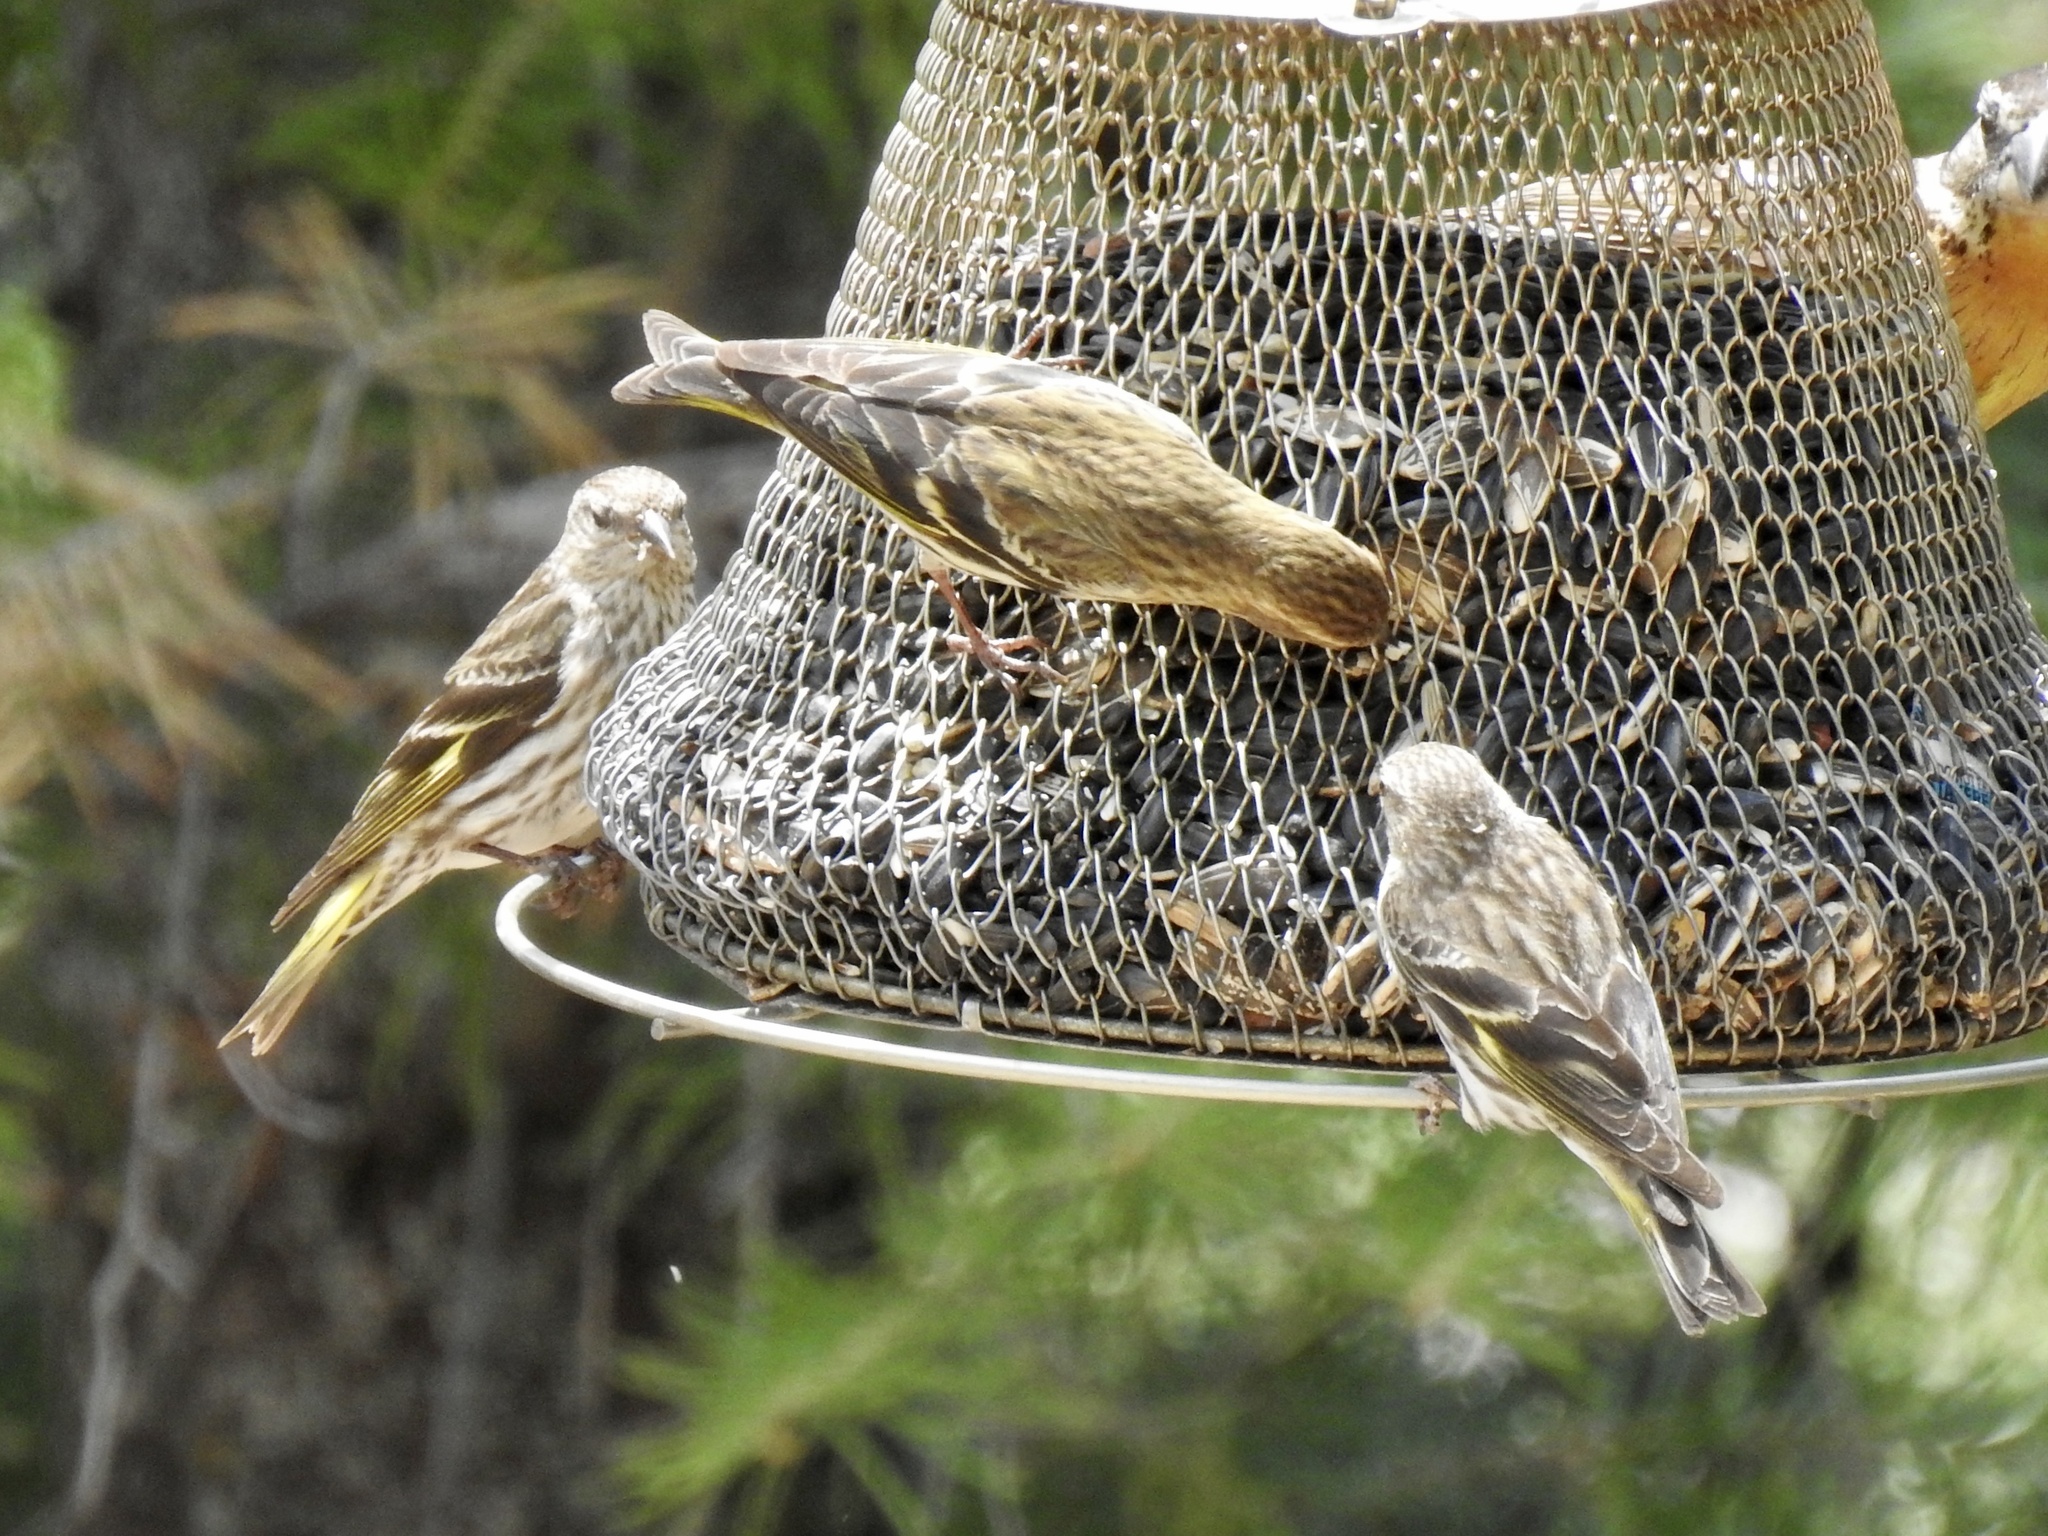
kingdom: Animalia
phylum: Chordata
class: Aves
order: Passeriformes
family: Fringillidae
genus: Spinus
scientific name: Spinus pinus
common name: Pine siskin
